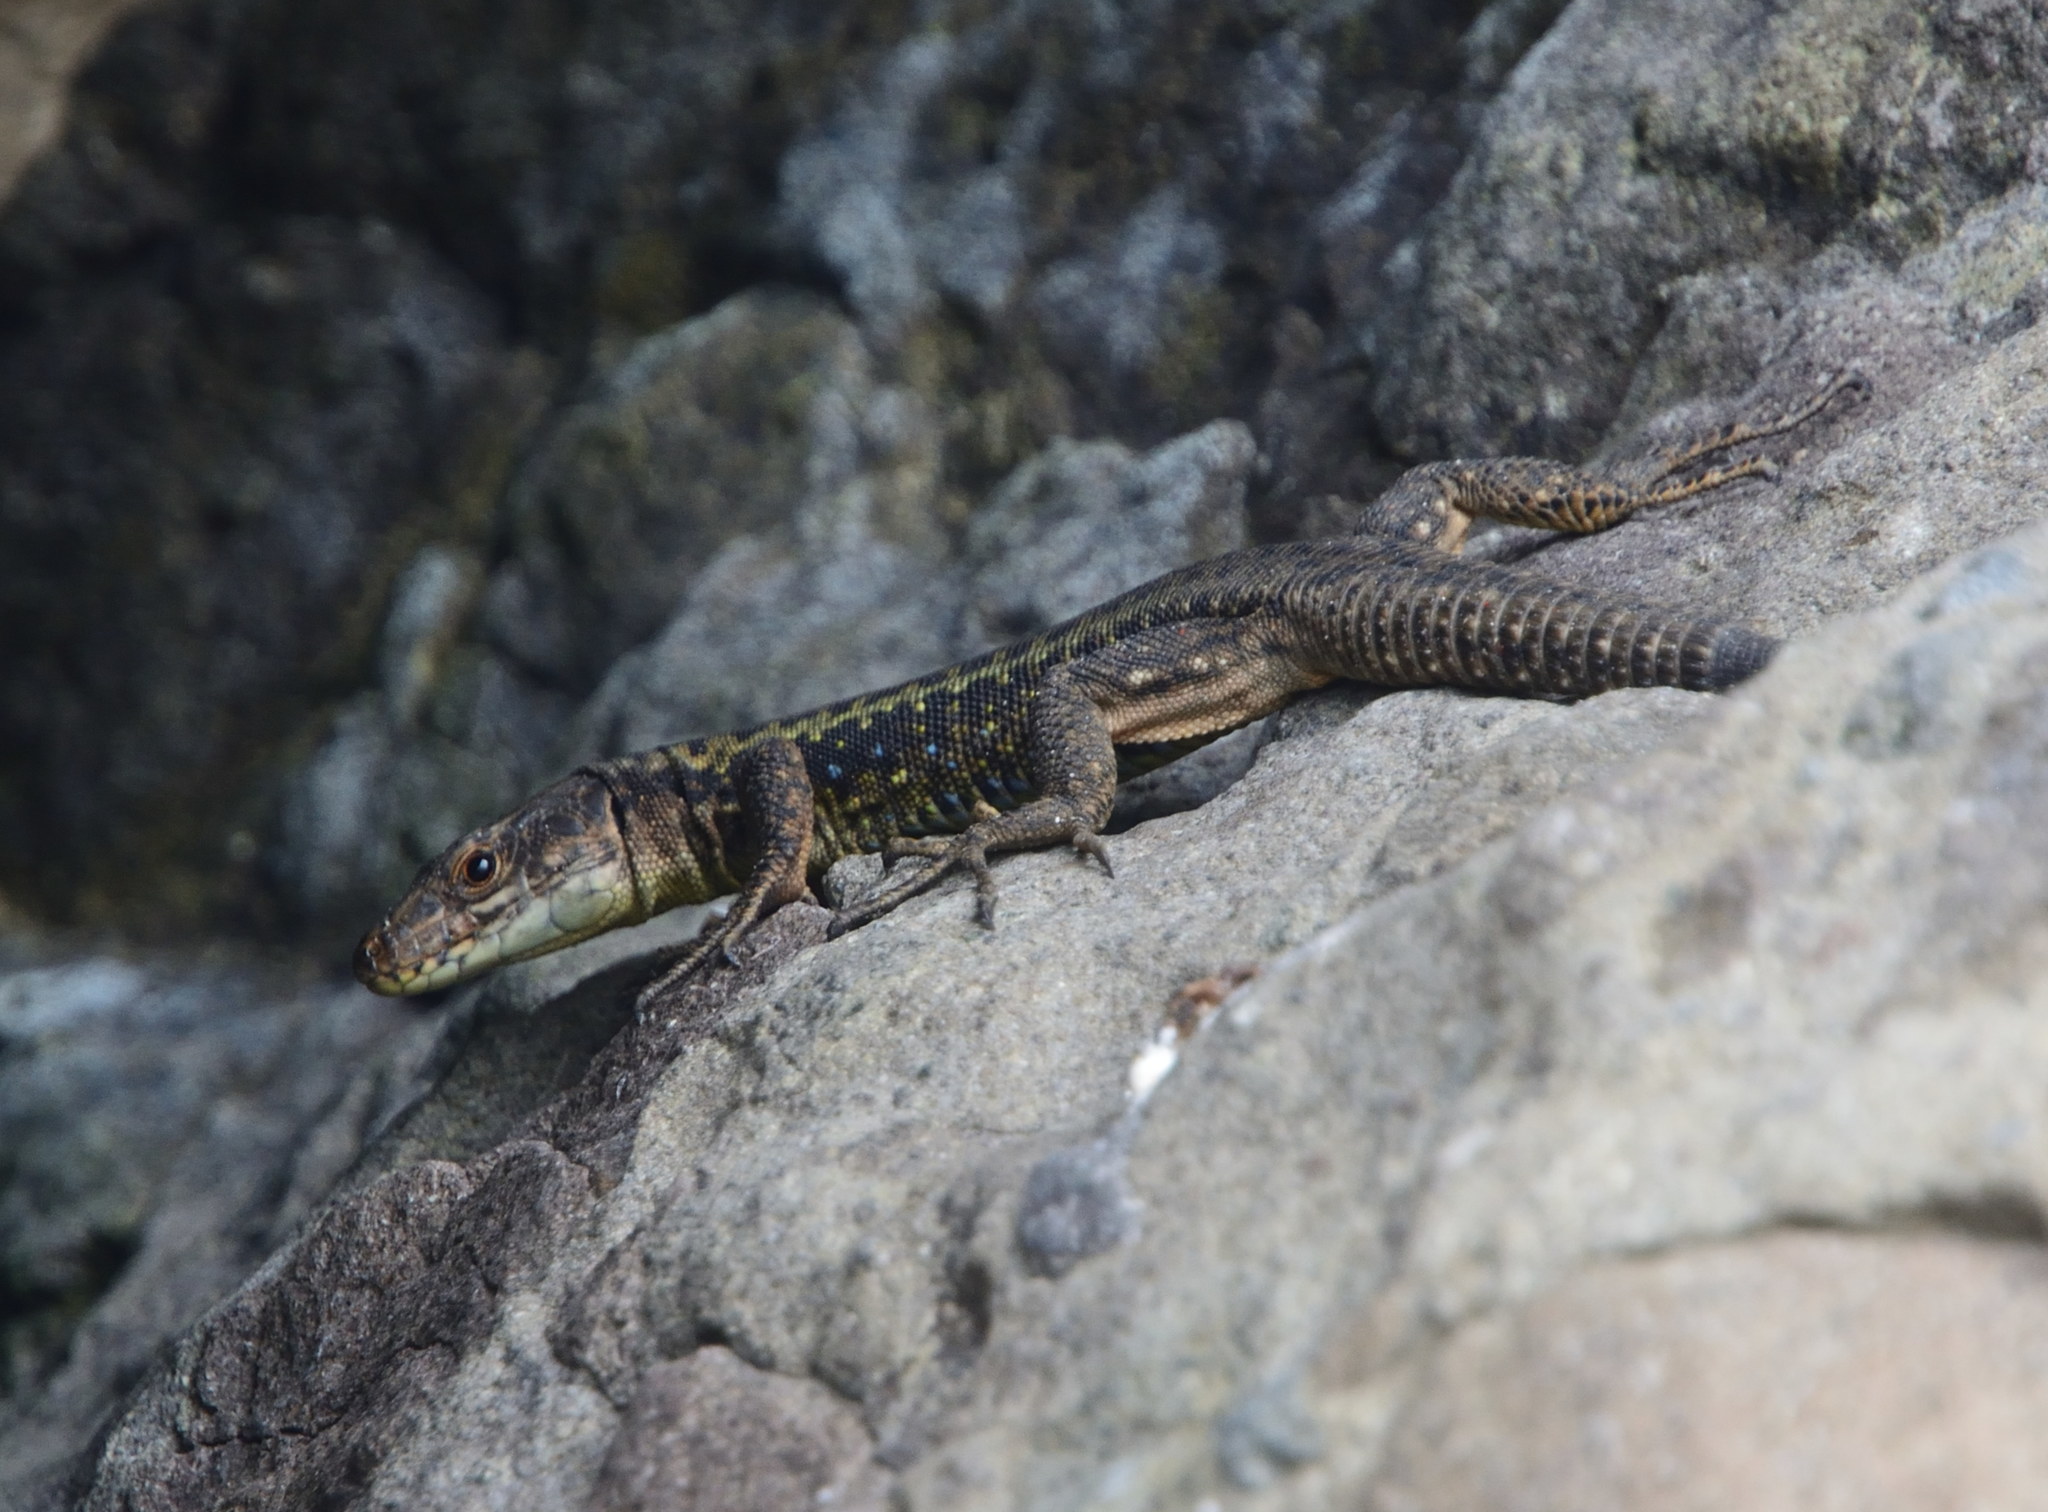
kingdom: Animalia
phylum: Chordata
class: Squamata
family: Lacertidae
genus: Darevskia
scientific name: Darevskia rudis
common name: Spiny-tailed lizard
